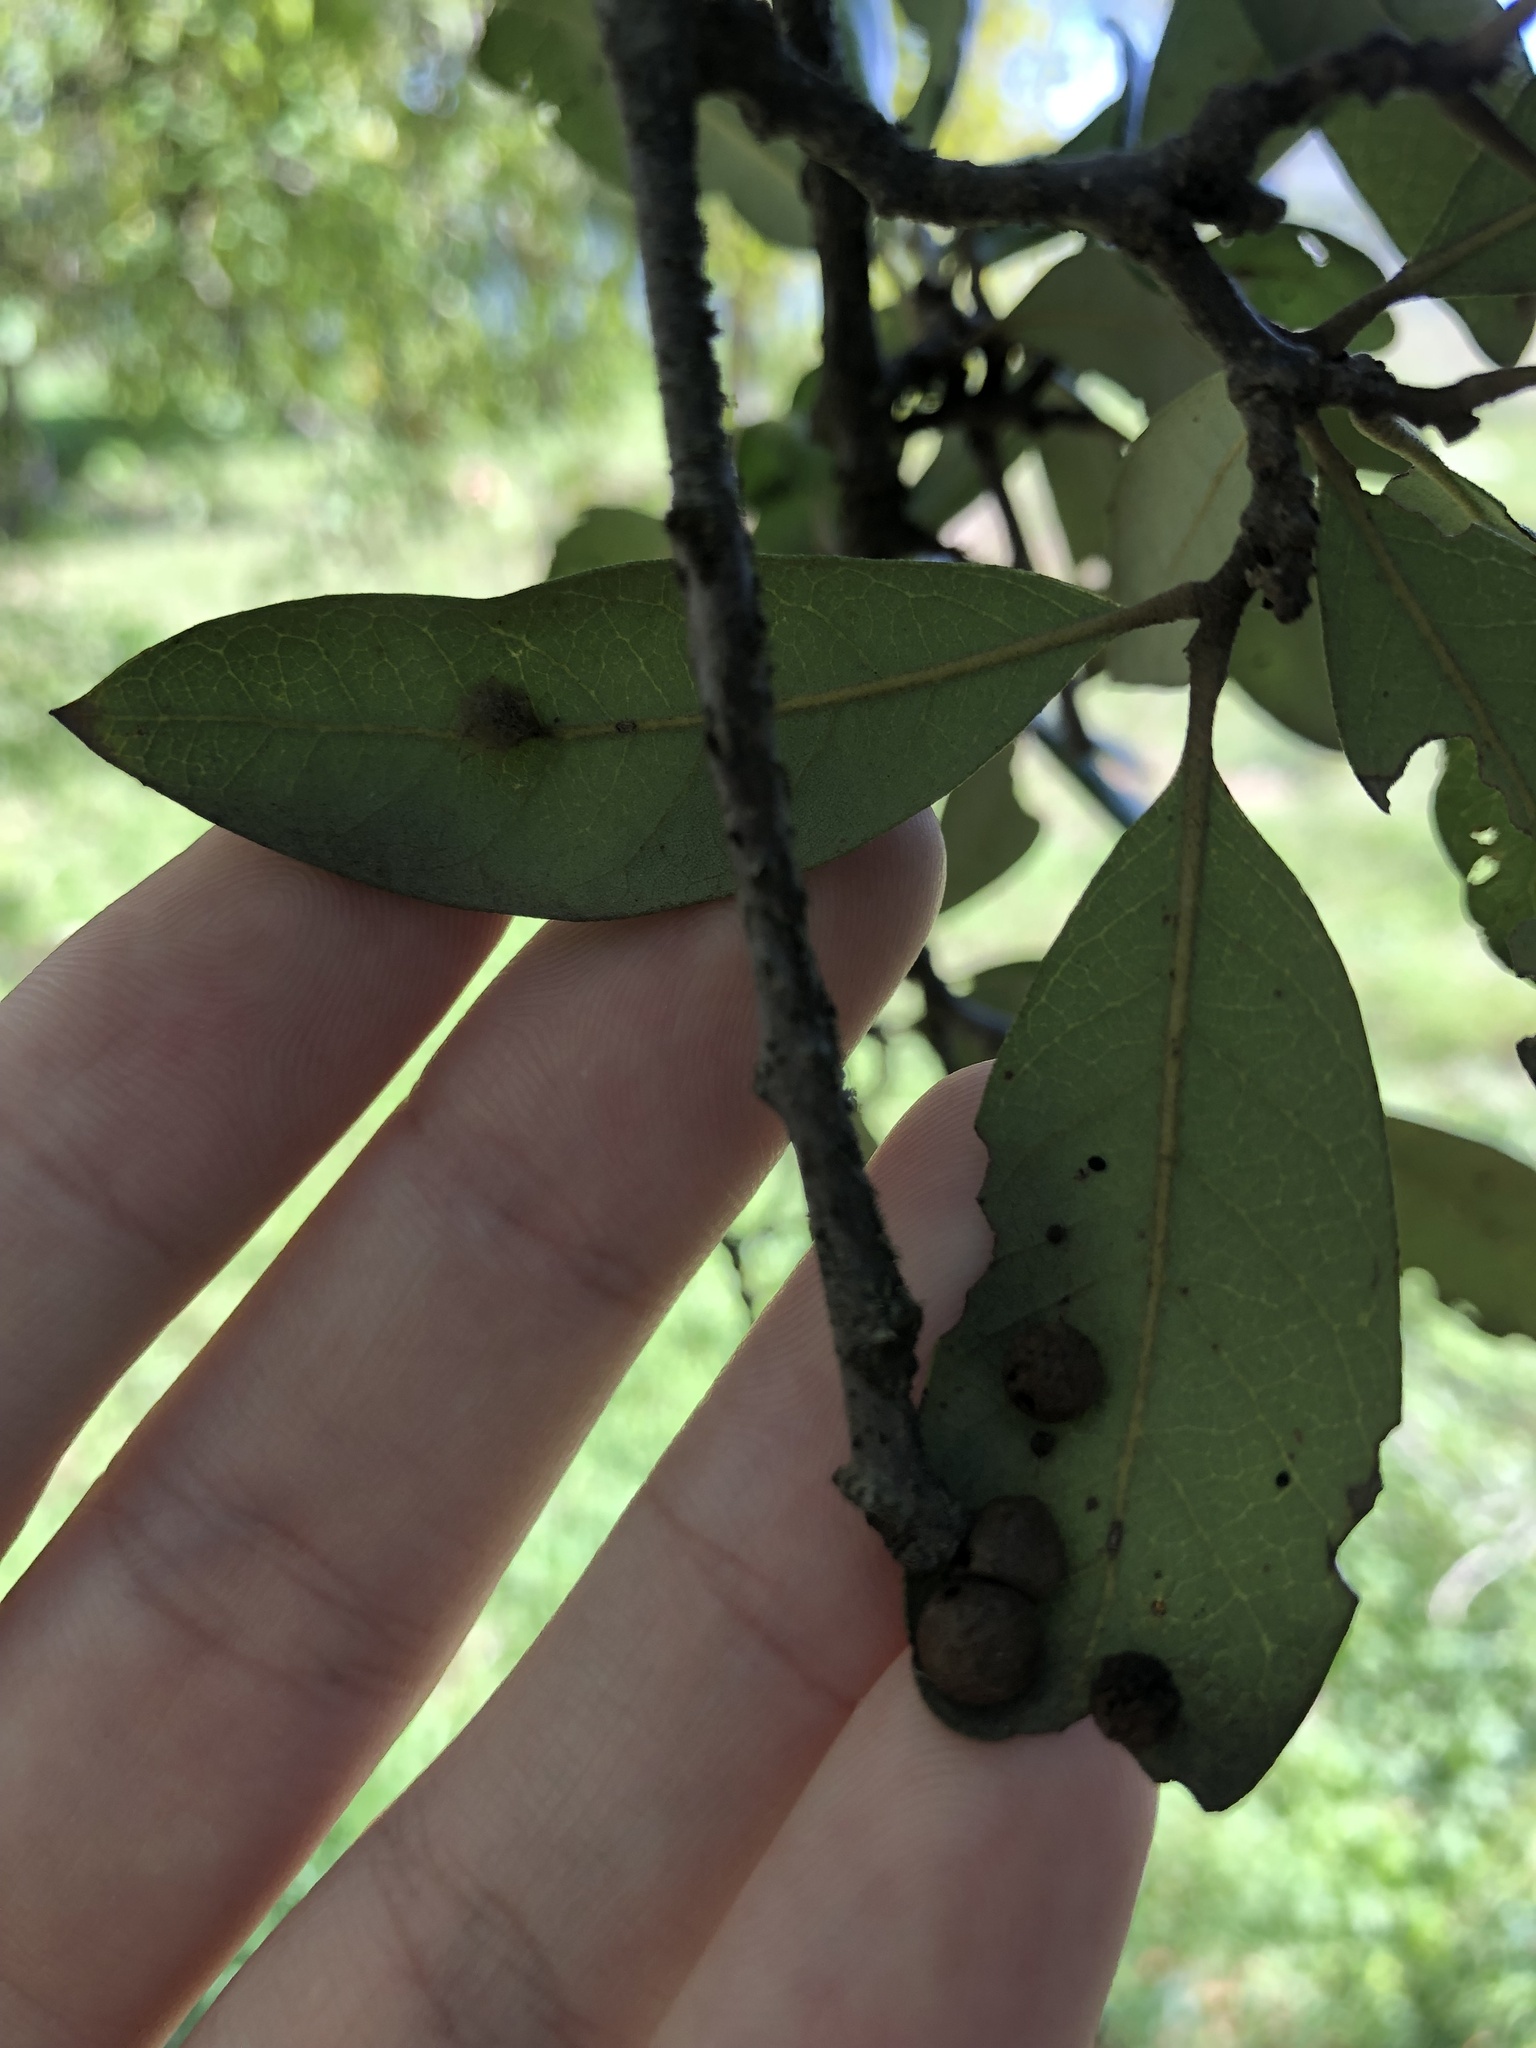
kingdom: Animalia
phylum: Arthropoda
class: Insecta
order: Hymenoptera
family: Cynipidae
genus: Belonocnema
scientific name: Belonocnema kinseyi
